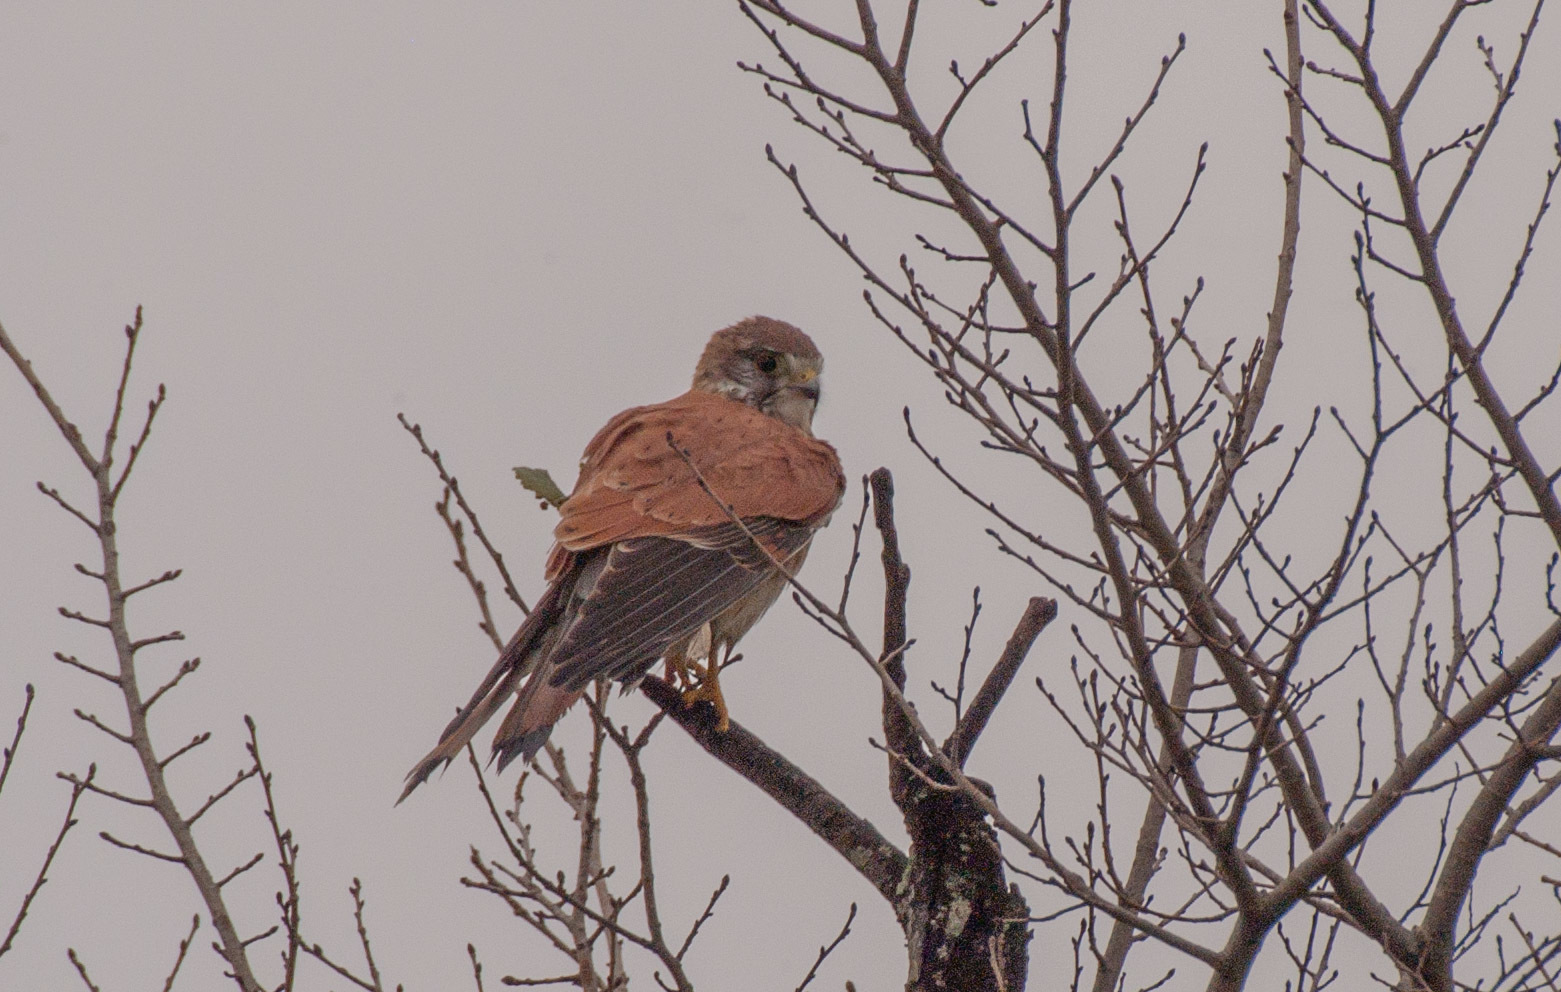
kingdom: Animalia
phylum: Chordata
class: Aves
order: Falconiformes
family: Falconidae
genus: Falco
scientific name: Falco cenchroides
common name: Nankeen kestrel
